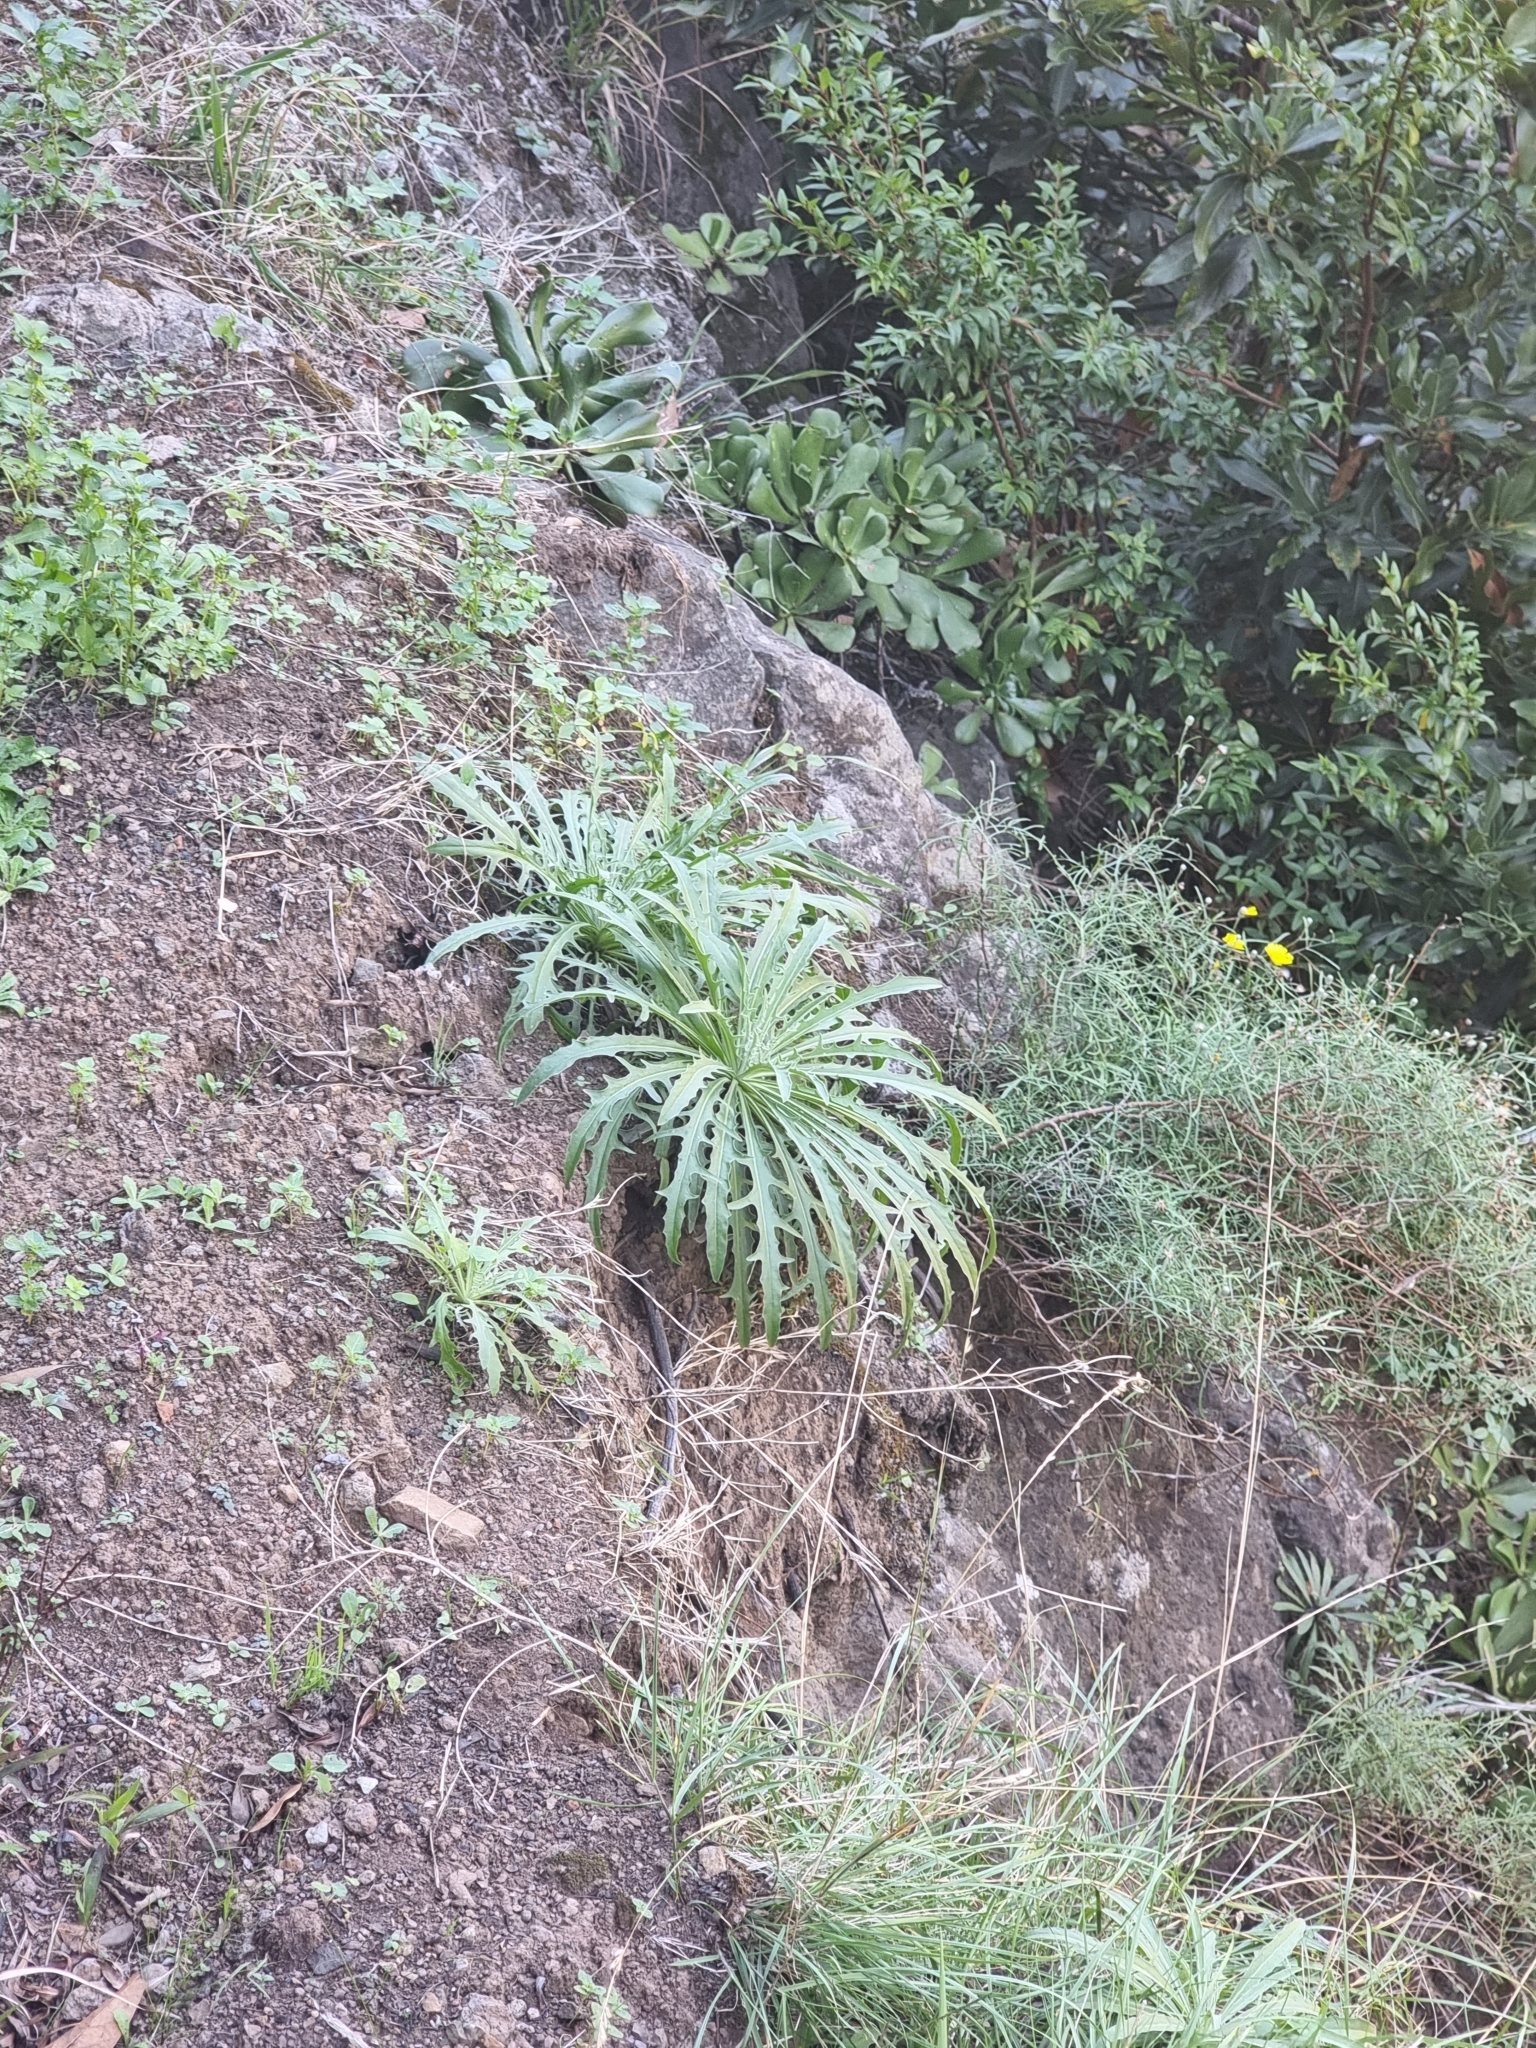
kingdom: Plantae
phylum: Tracheophyta
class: Magnoliopsida
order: Asterales
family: Asteraceae
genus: Andryala
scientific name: Andryala glandulosa
